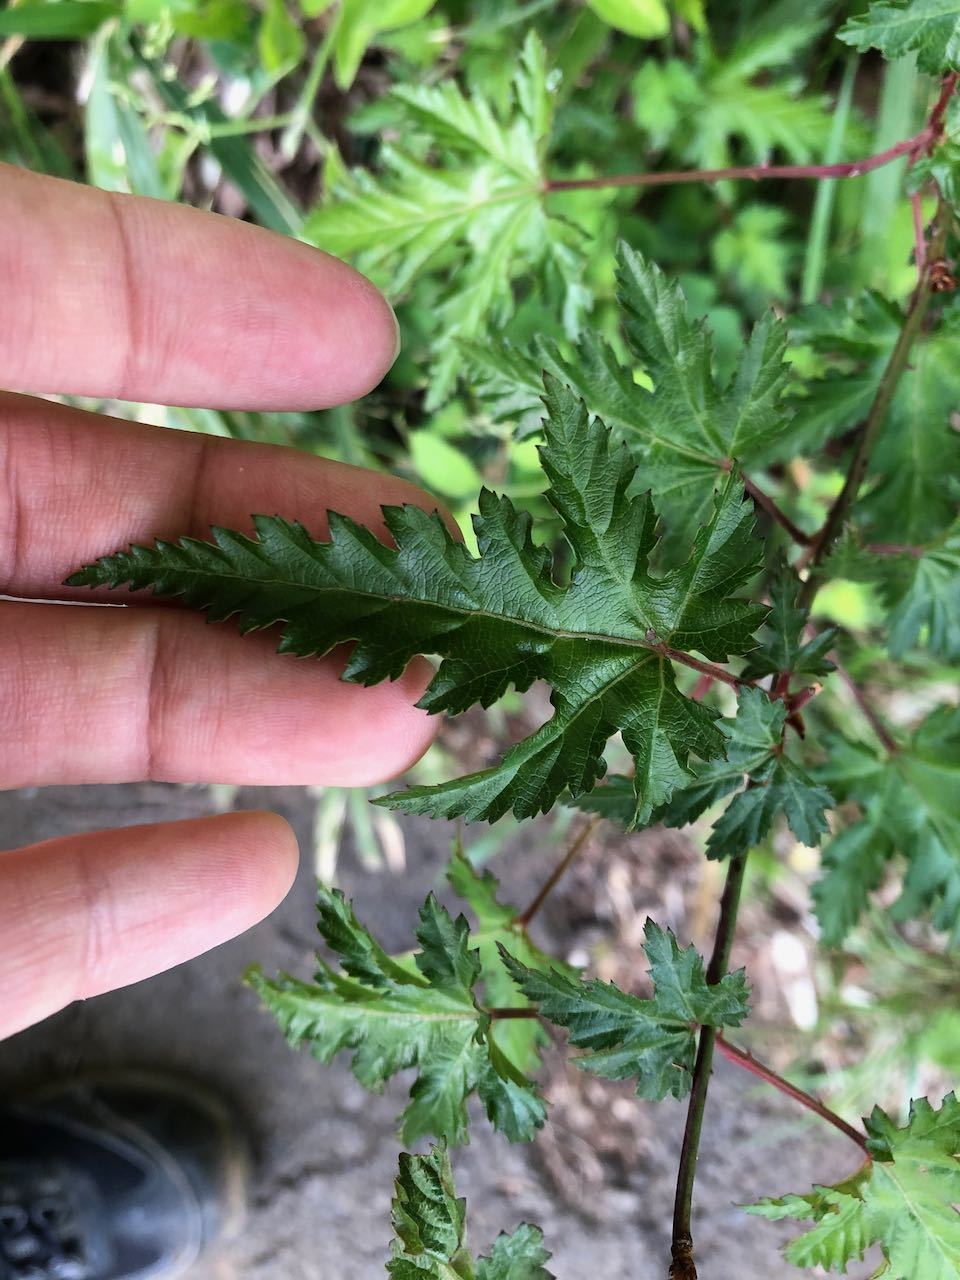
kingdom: Plantae
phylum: Tracheophyta
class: Magnoliopsida
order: Rosales
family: Rosaceae
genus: Rubus
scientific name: Rubus palmatus
